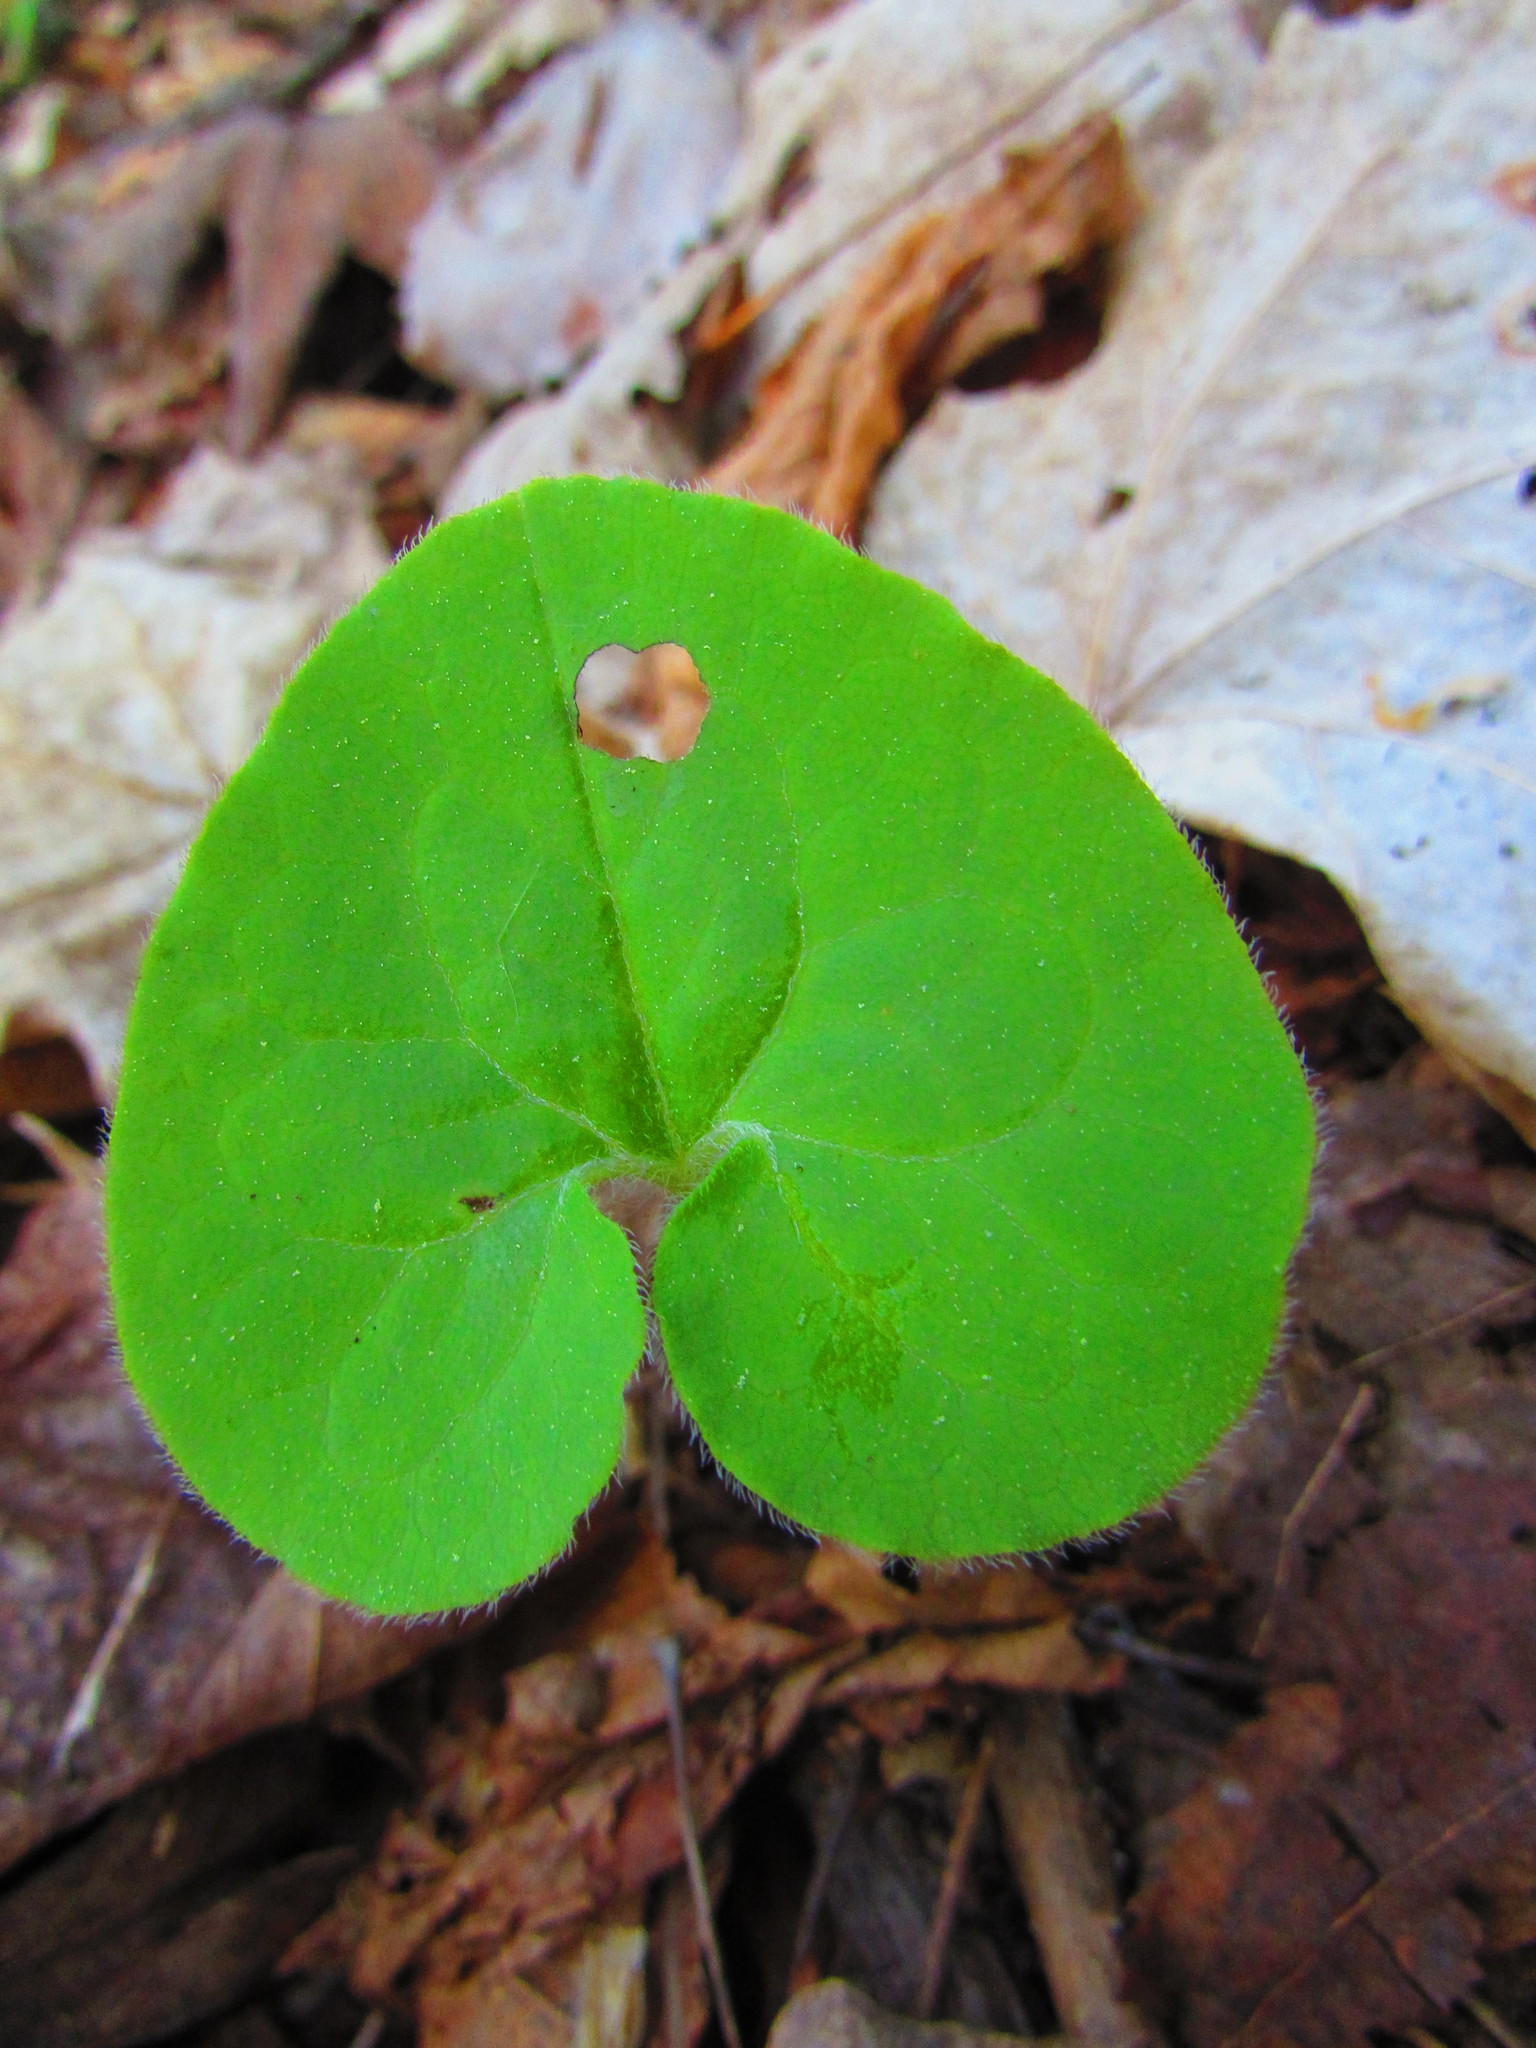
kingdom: Plantae
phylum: Tracheophyta
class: Magnoliopsida
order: Piperales
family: Aristolochiaceae
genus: Asarum
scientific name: Asarum canadense
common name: Wild ginger
